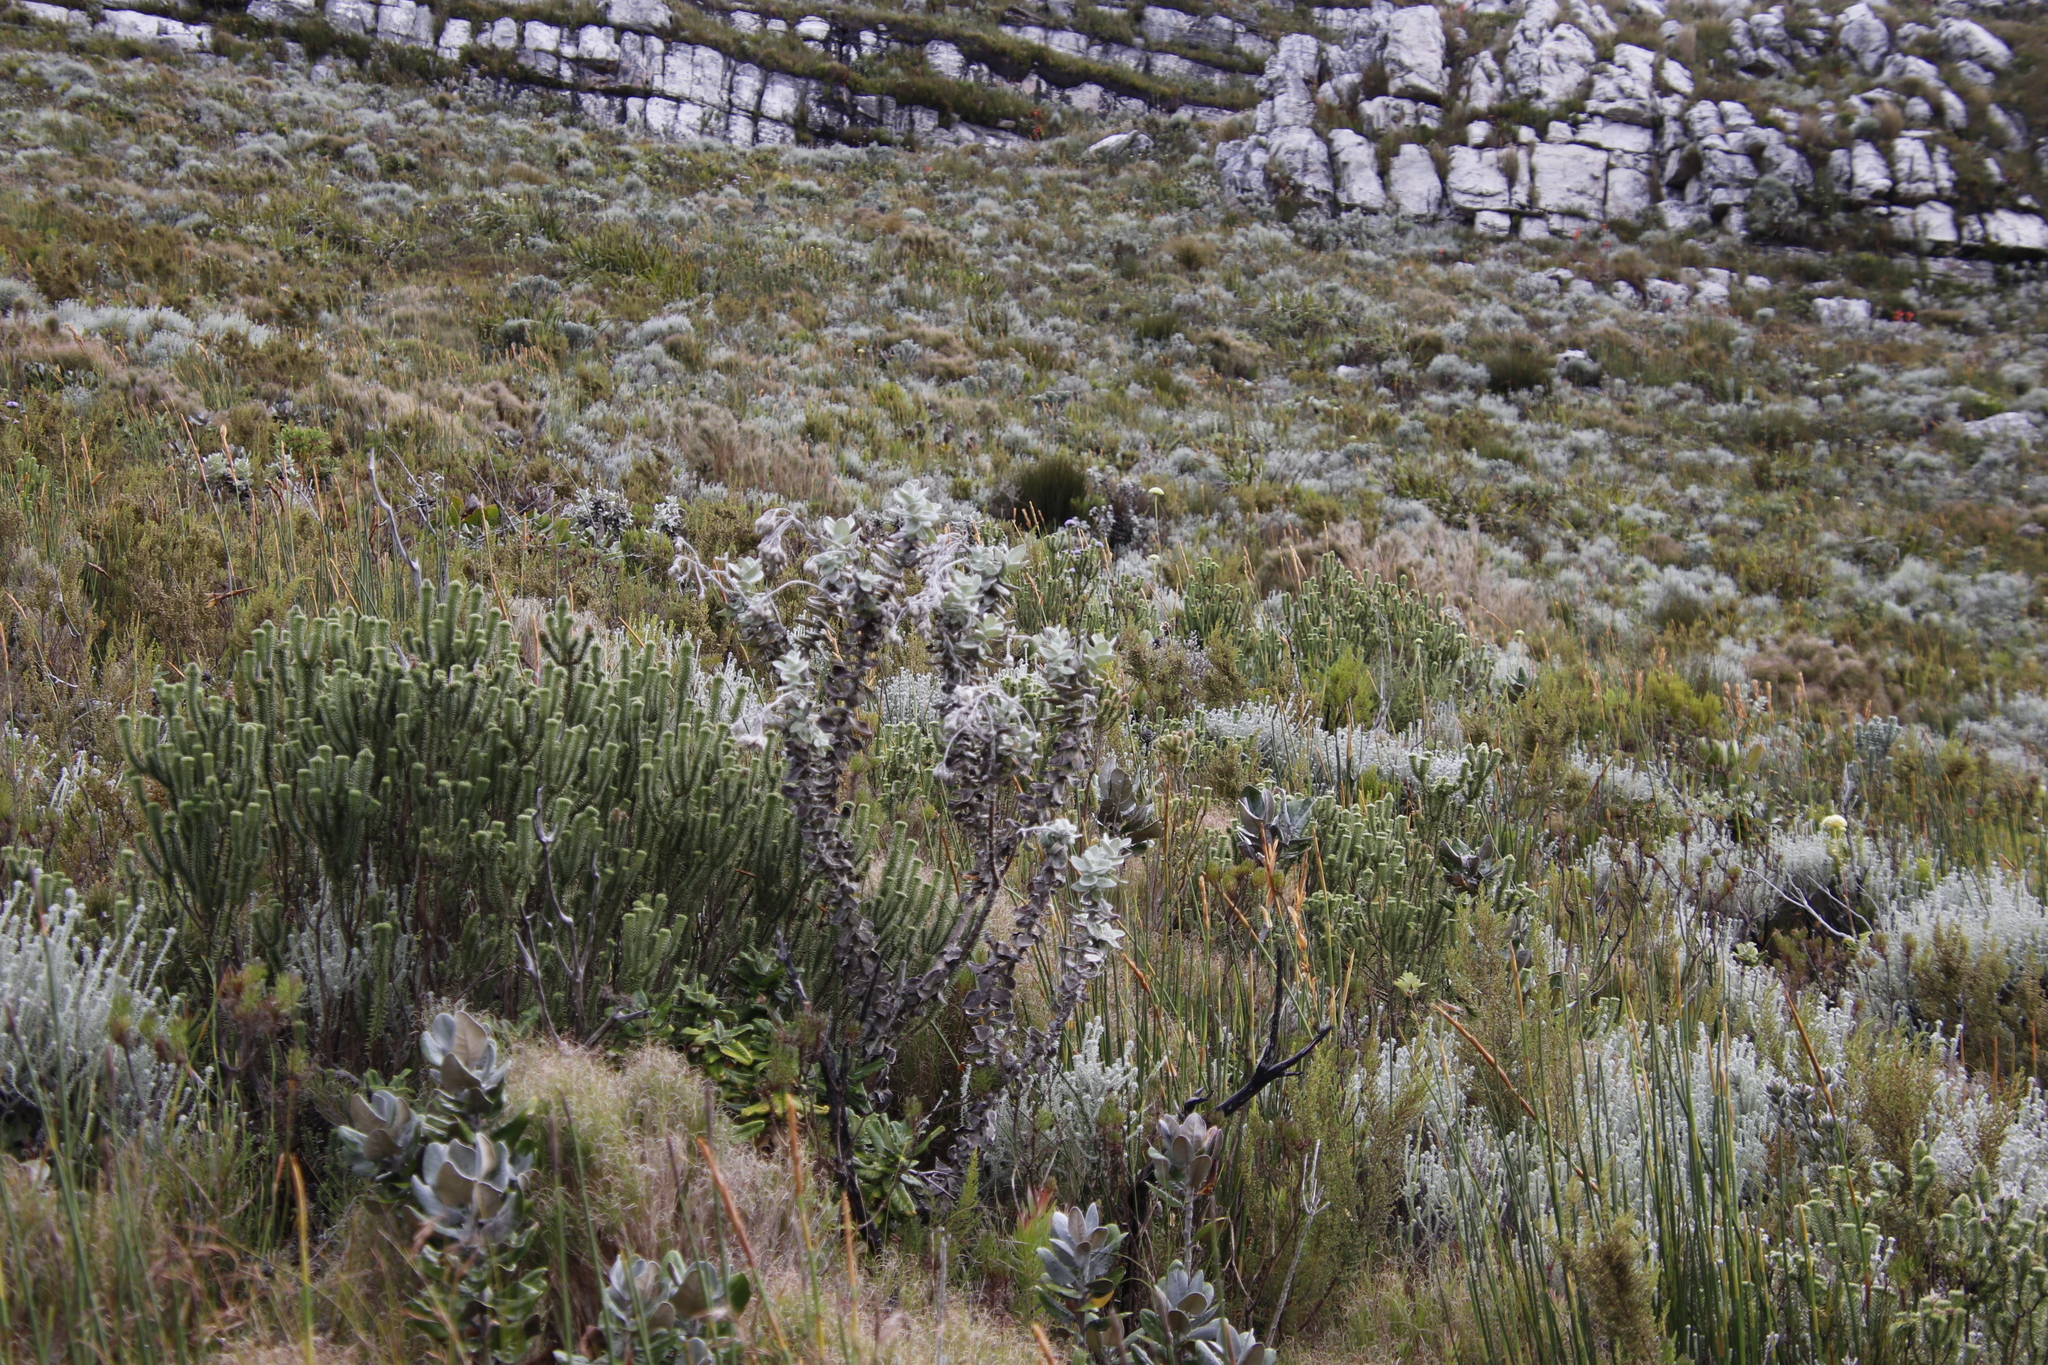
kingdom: Plantae
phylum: Tracheophyta
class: Magnoliopsida
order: Asterales
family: Asteraceae
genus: Helichrysum
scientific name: Helichrysum fruticans
